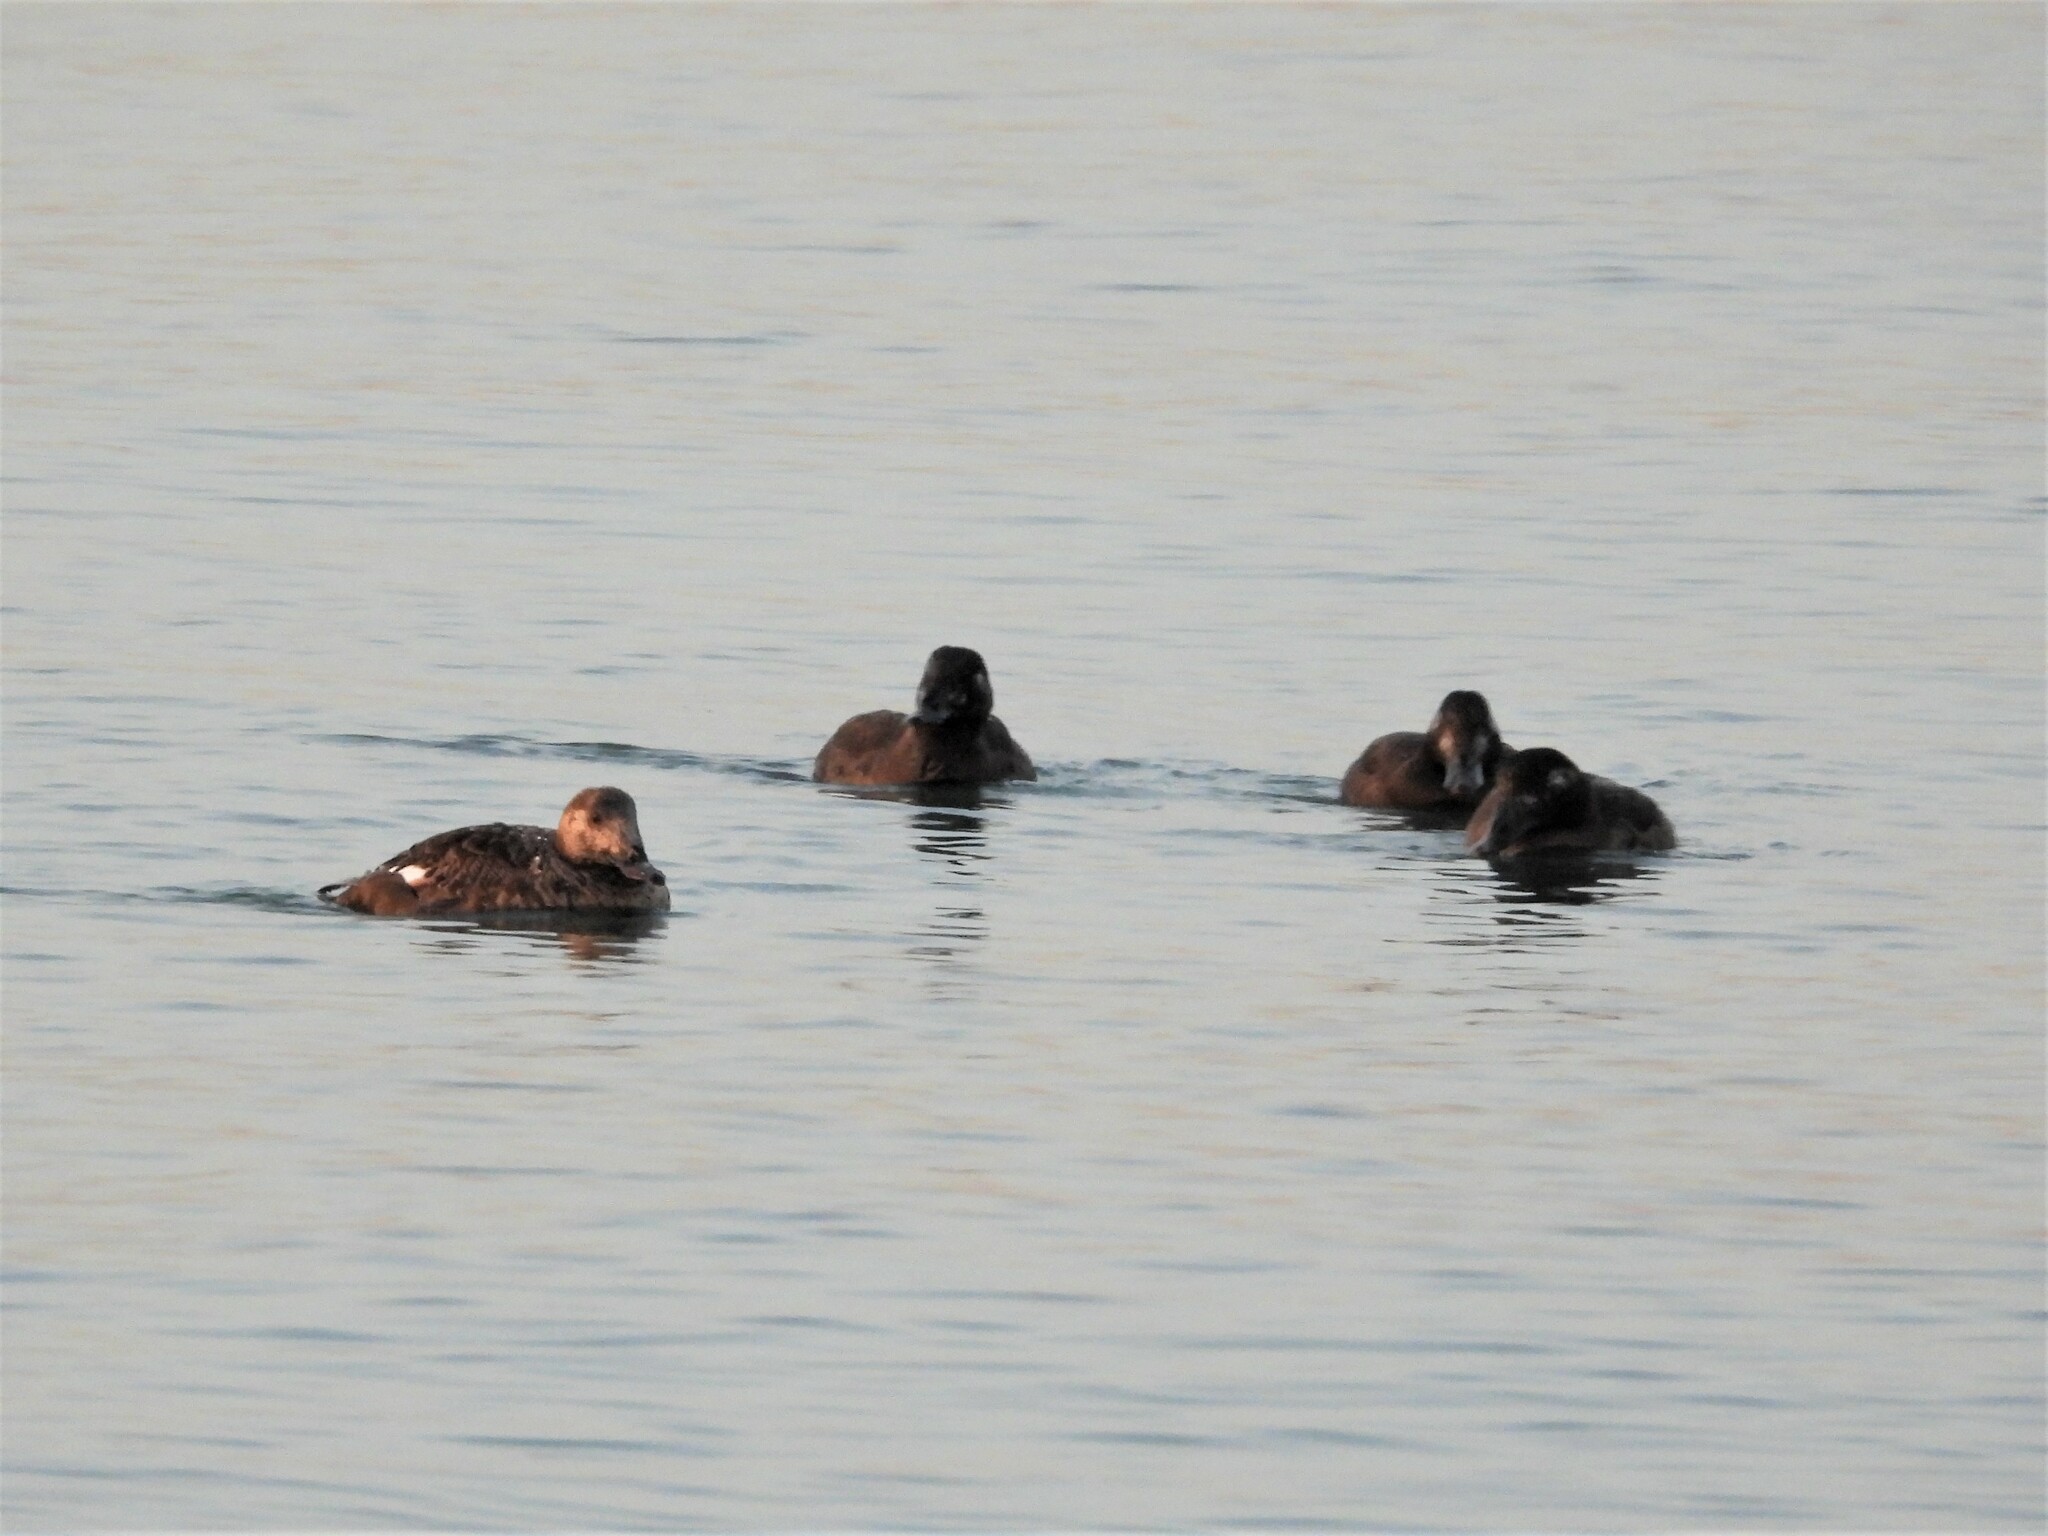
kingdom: Animalia
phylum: Chordata
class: Aves
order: Anseriformes
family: Anatidae
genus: Melanitta
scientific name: Melanitta deglandi
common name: White-winged scoter
